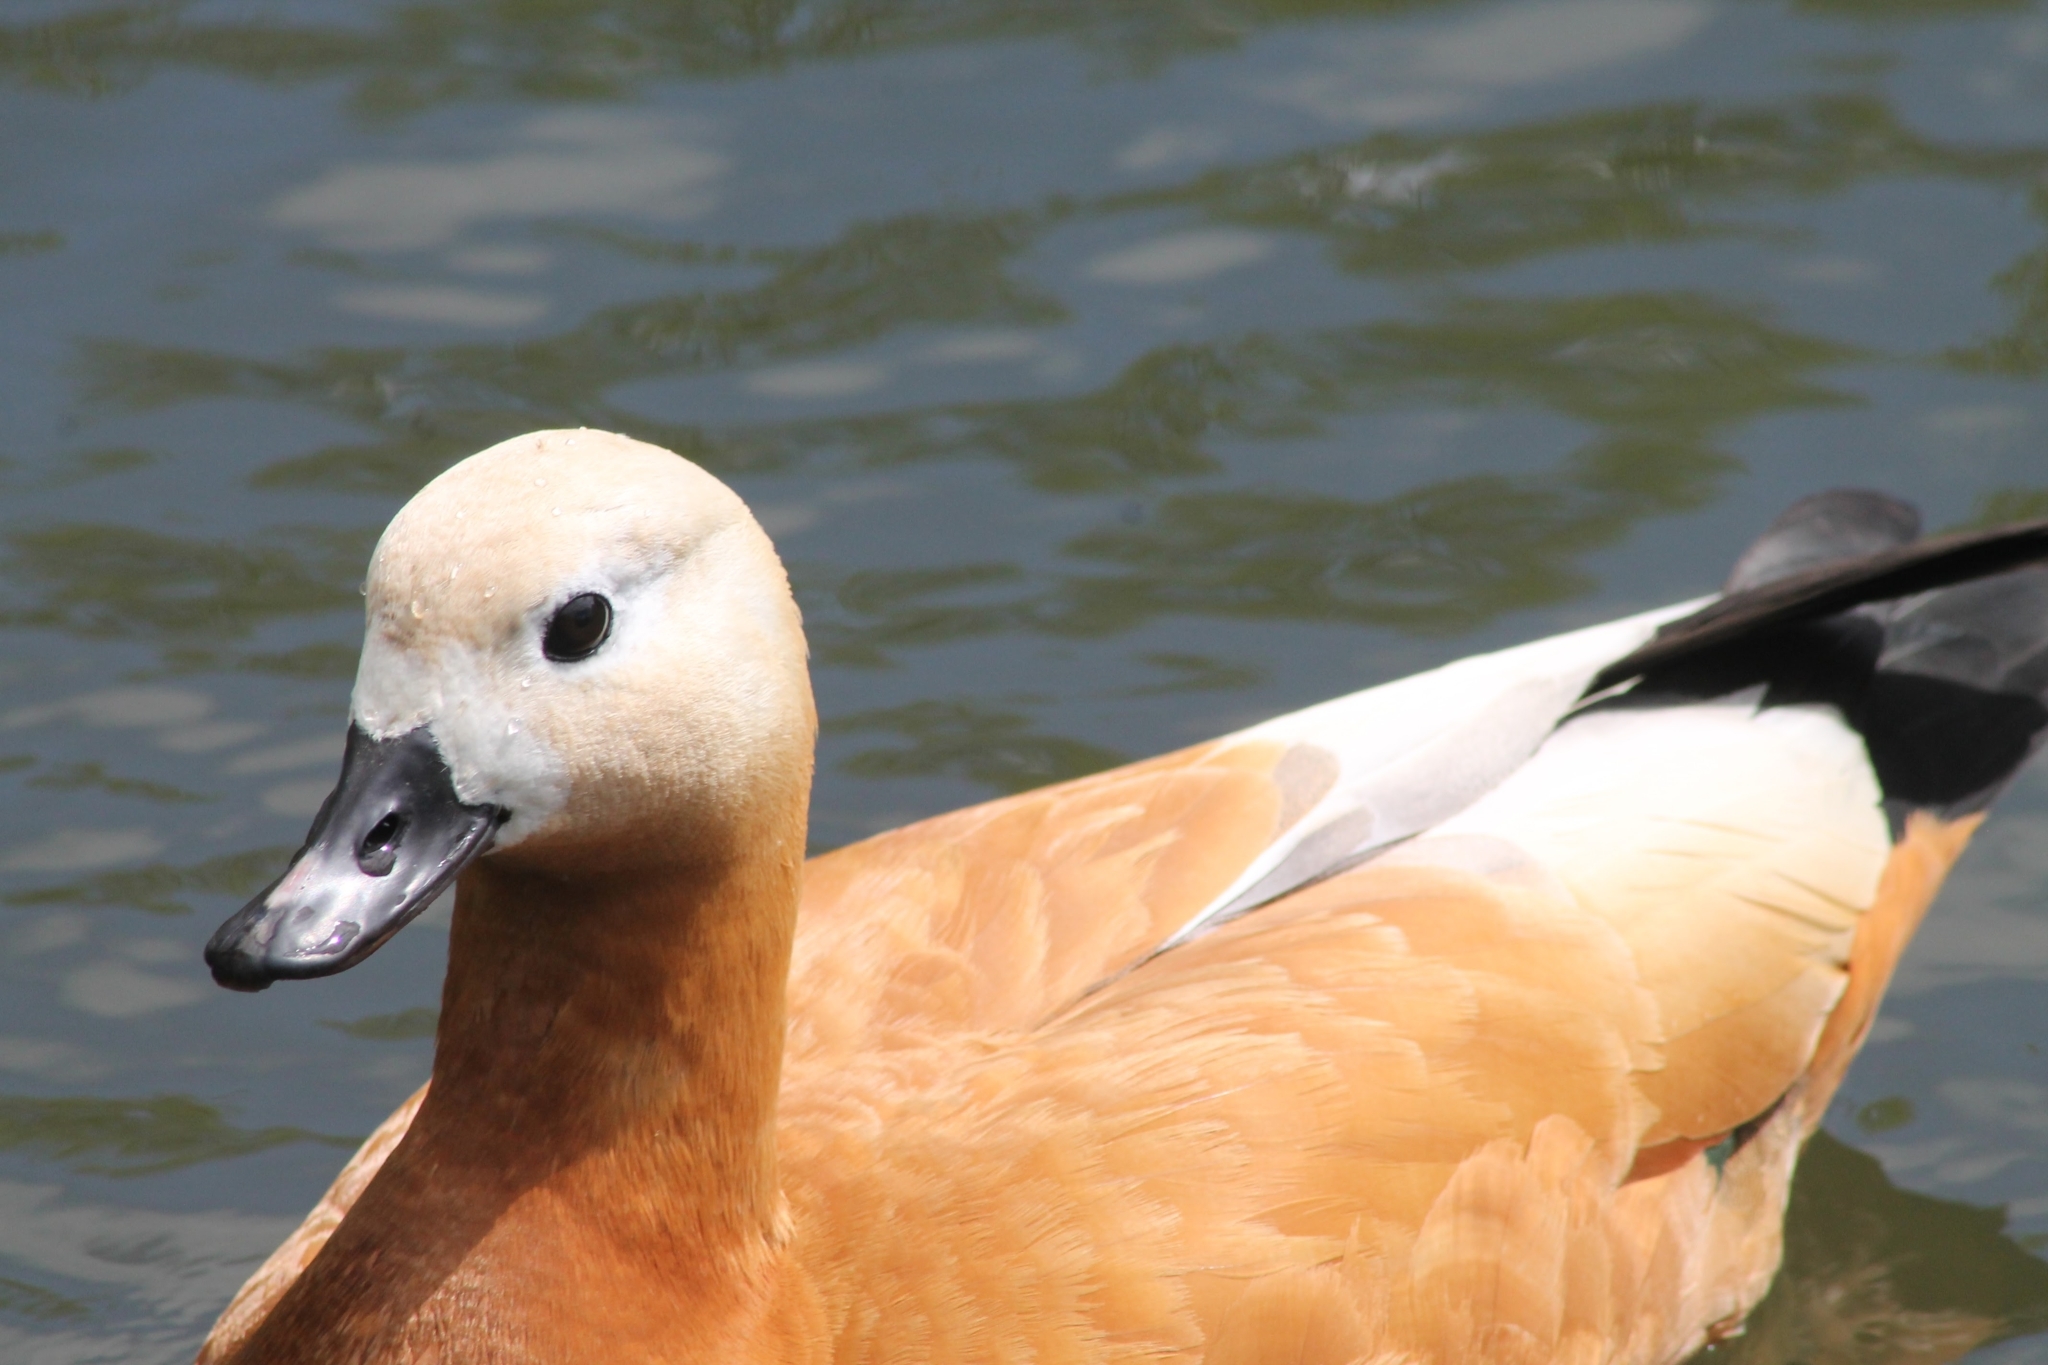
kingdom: Animalia
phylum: Chordata
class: Aves
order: Anseriformes
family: Anatidae
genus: Tadorna
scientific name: Tadorna ferruginea
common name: Ruddy shelduck
